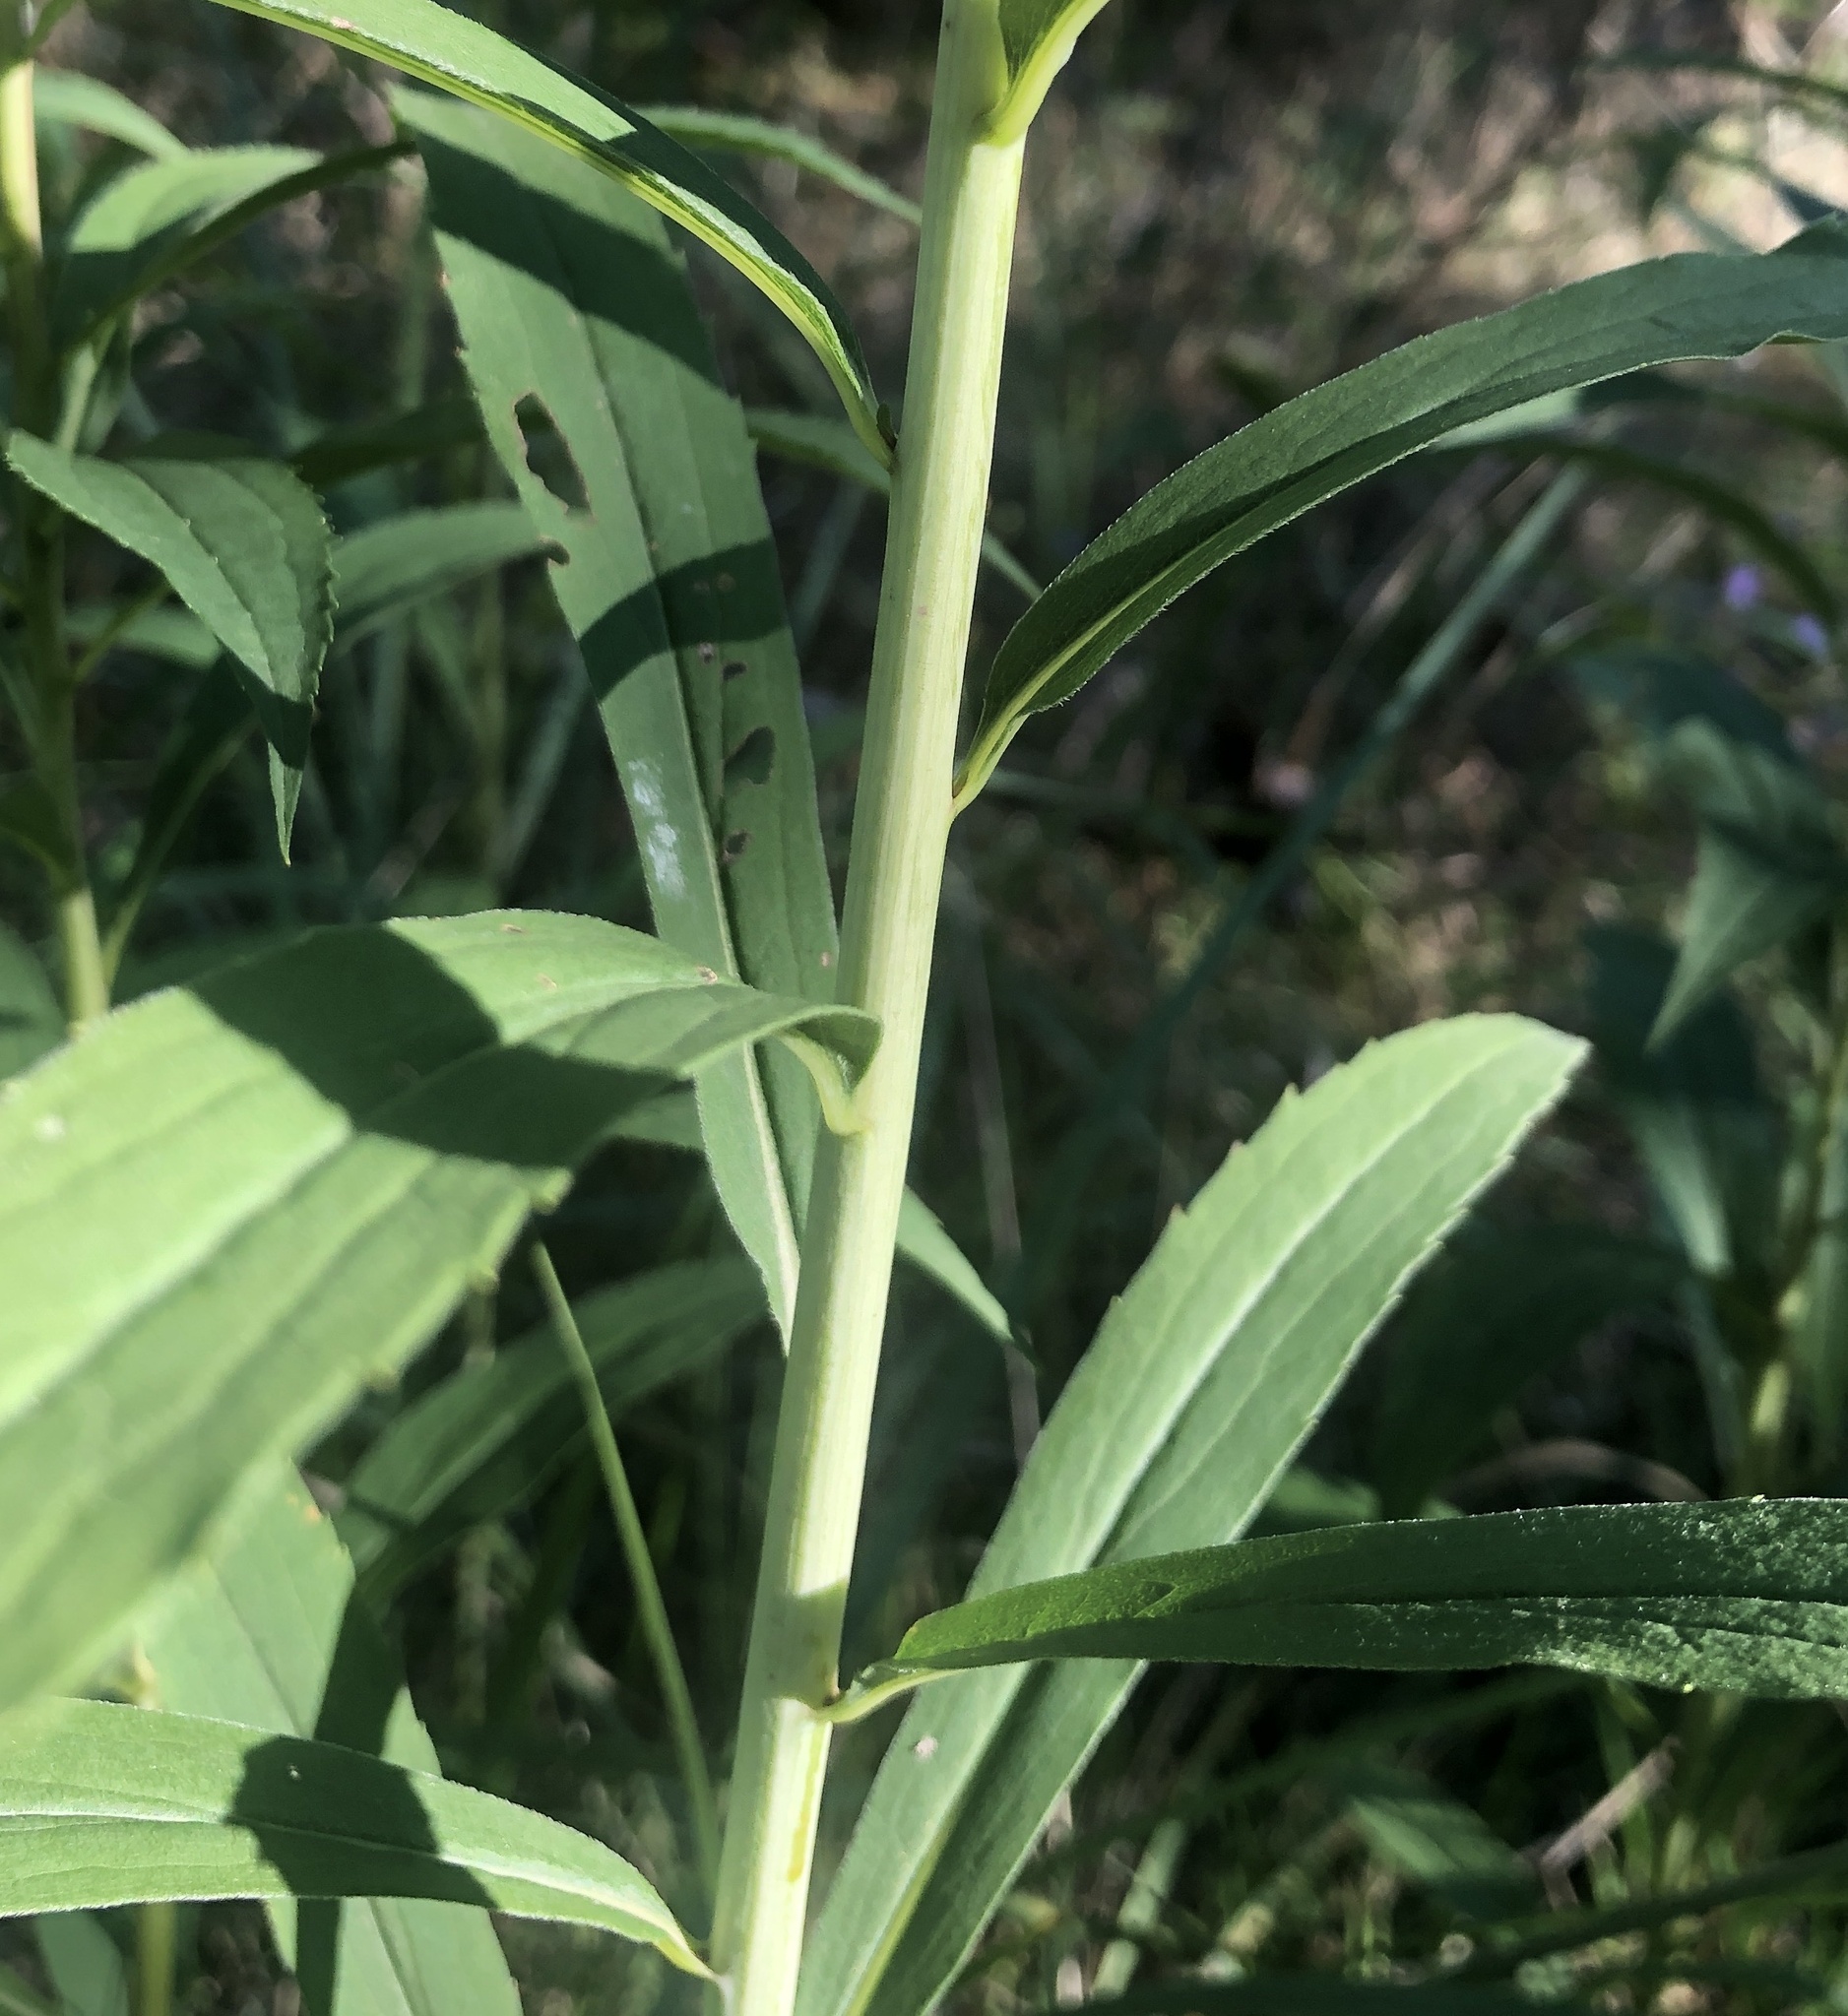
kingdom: Plantae
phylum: Tracheophyta
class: Magnoliopsida
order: Asterales
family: Asteraceae
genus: Solidago
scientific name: Solidago gigantea
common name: Giant goldenrod
